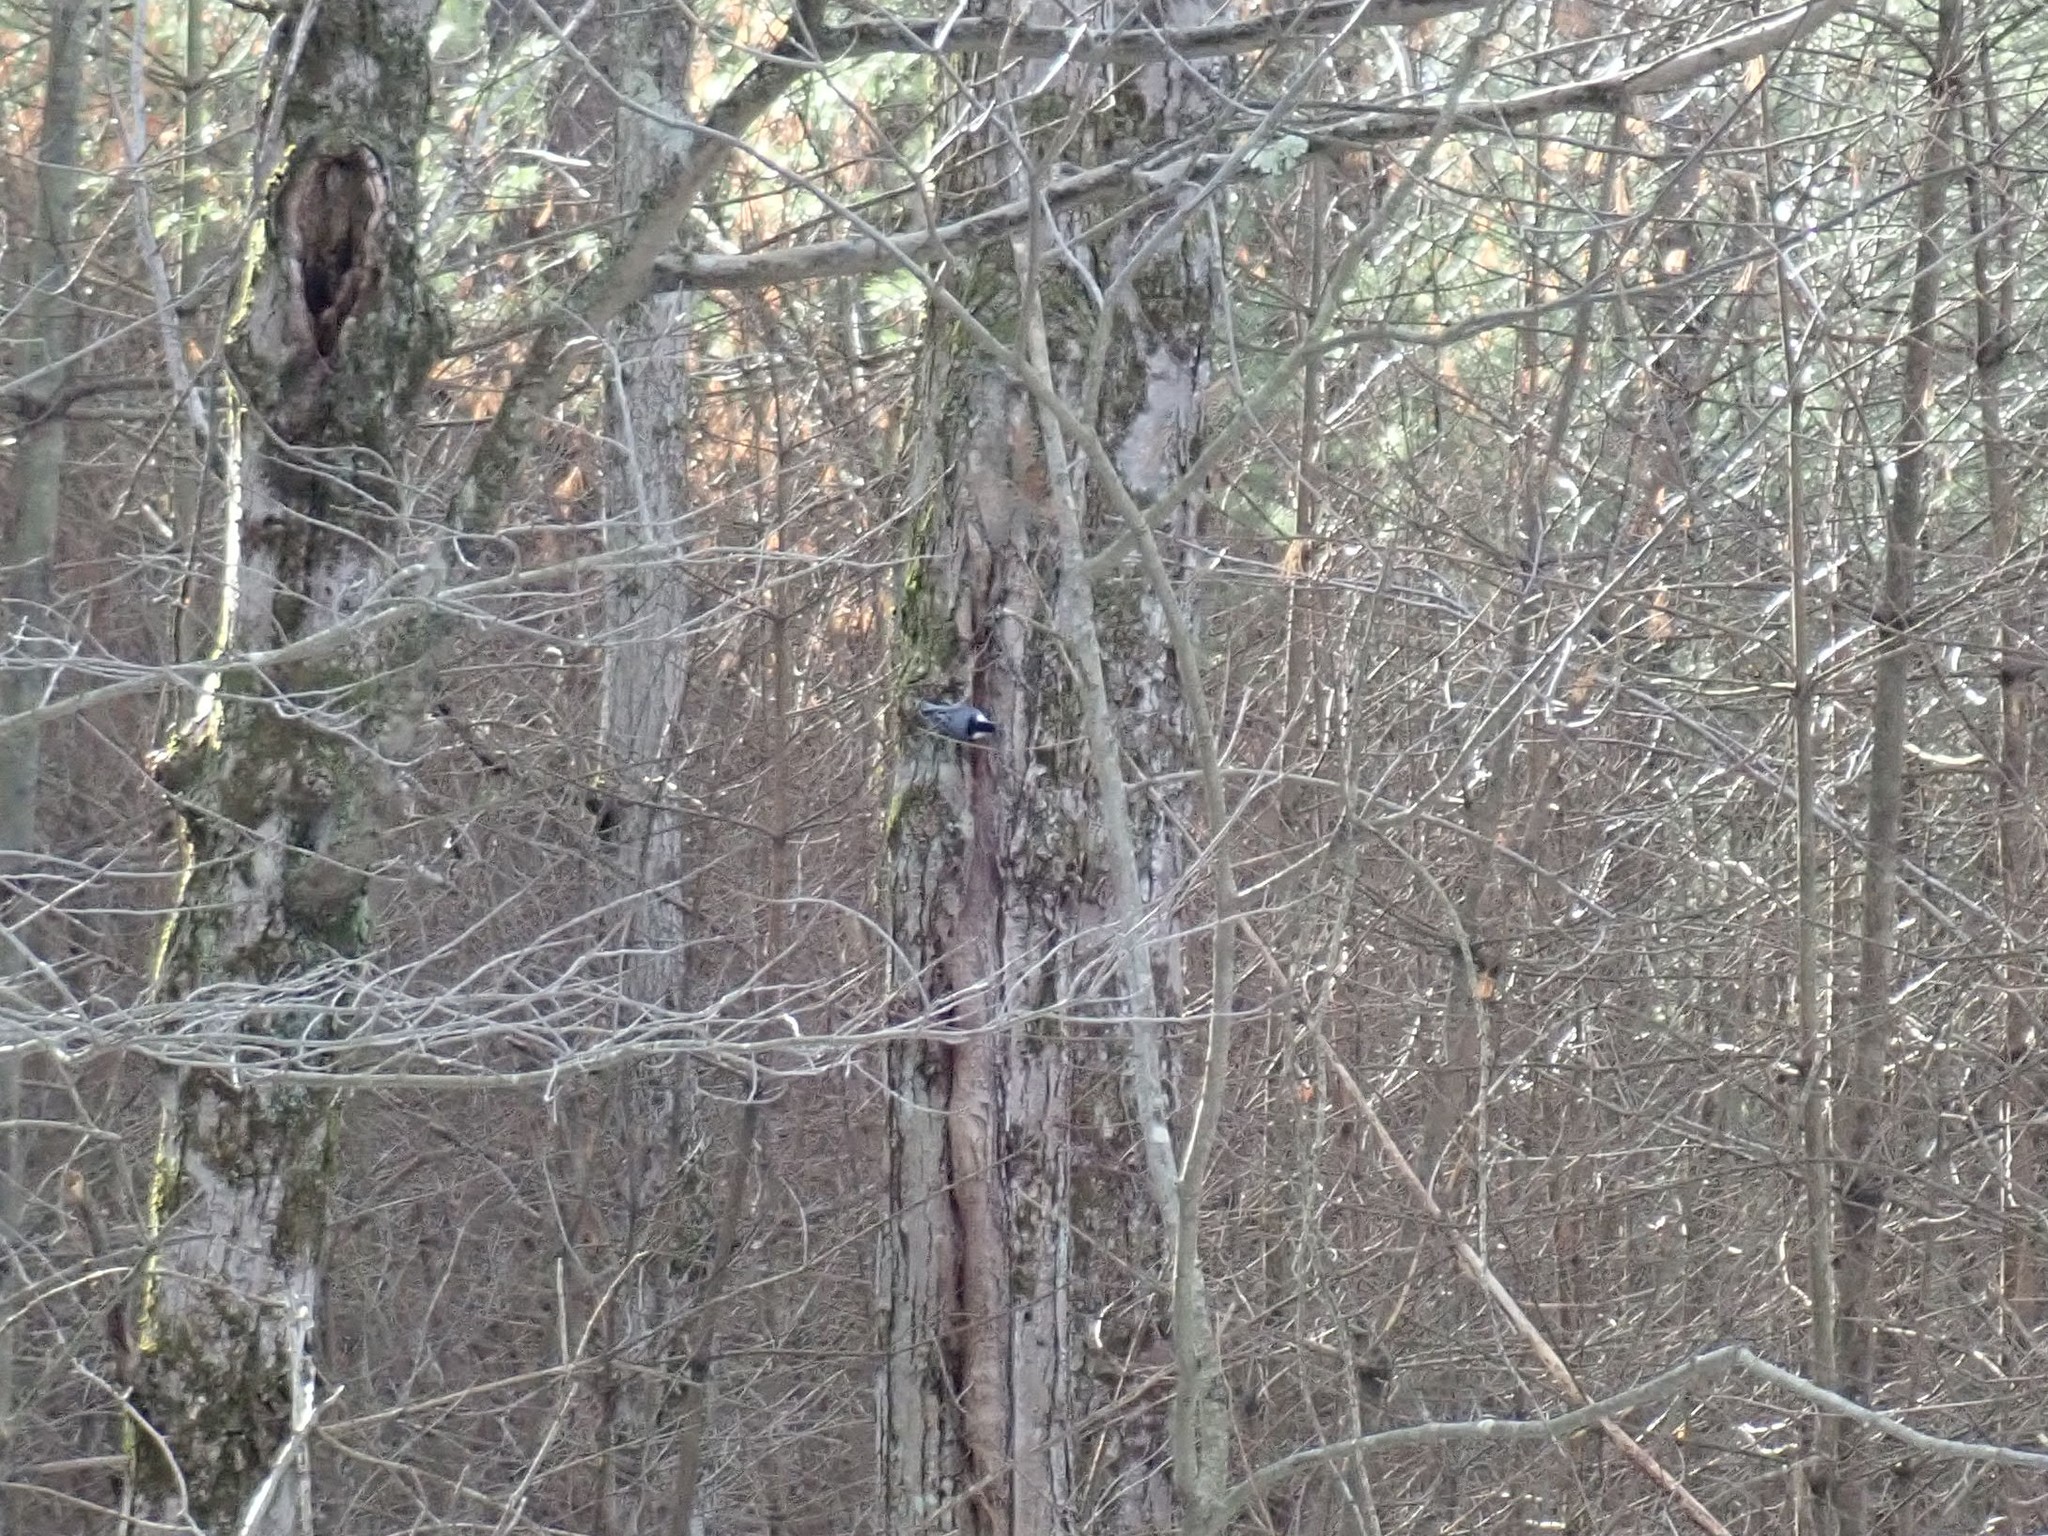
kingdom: Animalia
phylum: Chordata
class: Aves
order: Passeriformes
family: Sittidae
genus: Sitta
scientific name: Sitta carolinensis
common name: White-breasted nuthatch
